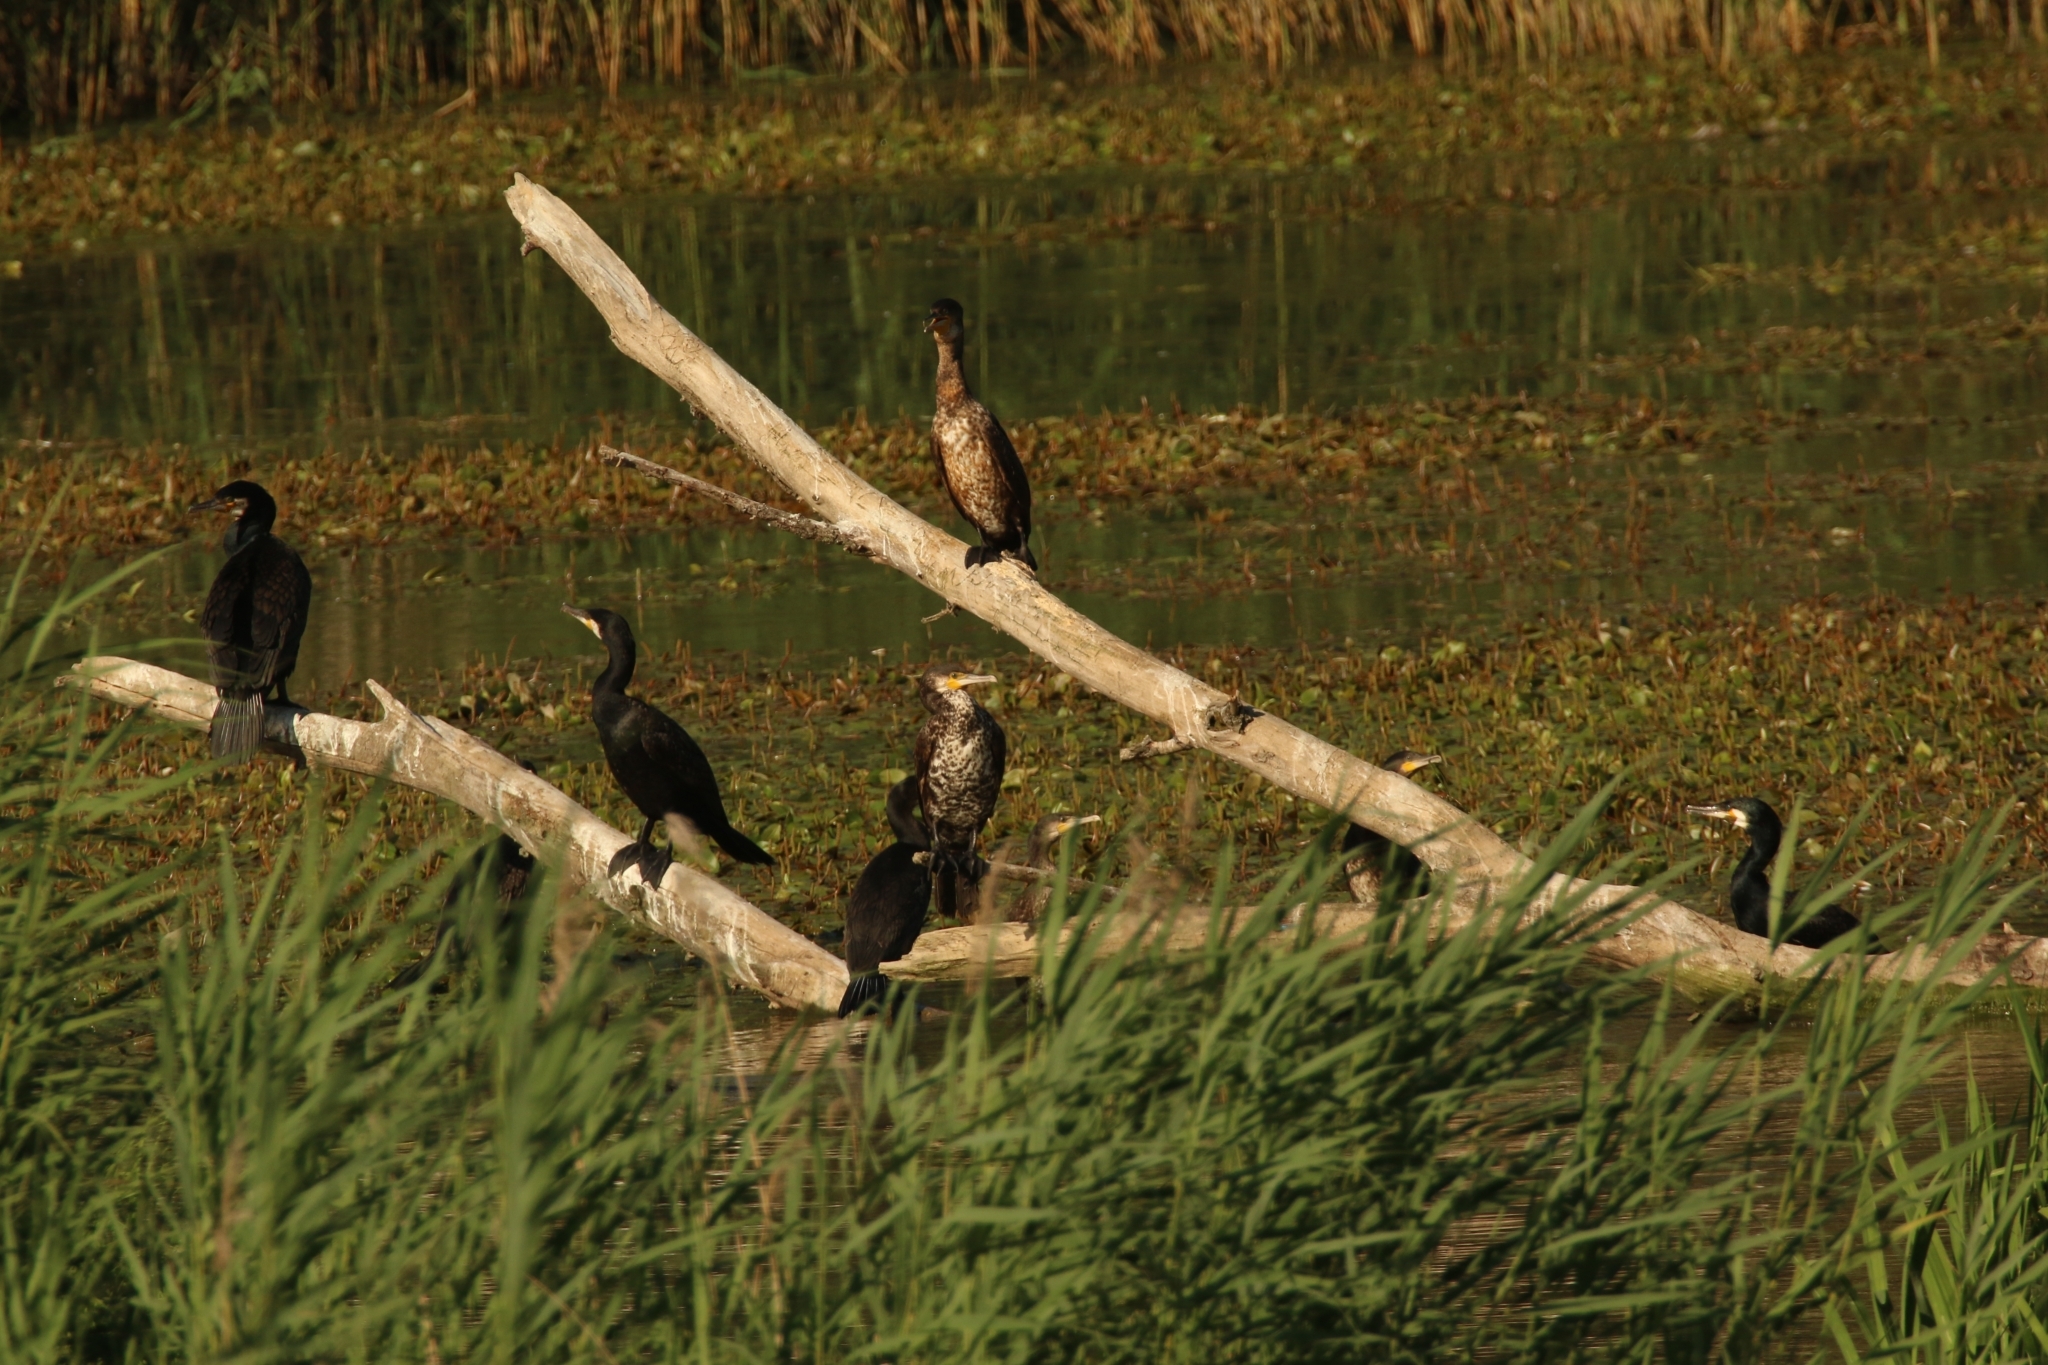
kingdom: Animalia
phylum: Chordata
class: Aves
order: Suliformes
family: Phalacrocoracidae
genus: Phalacrocorax
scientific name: Phalacrocorax carbo
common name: Great cormorant
